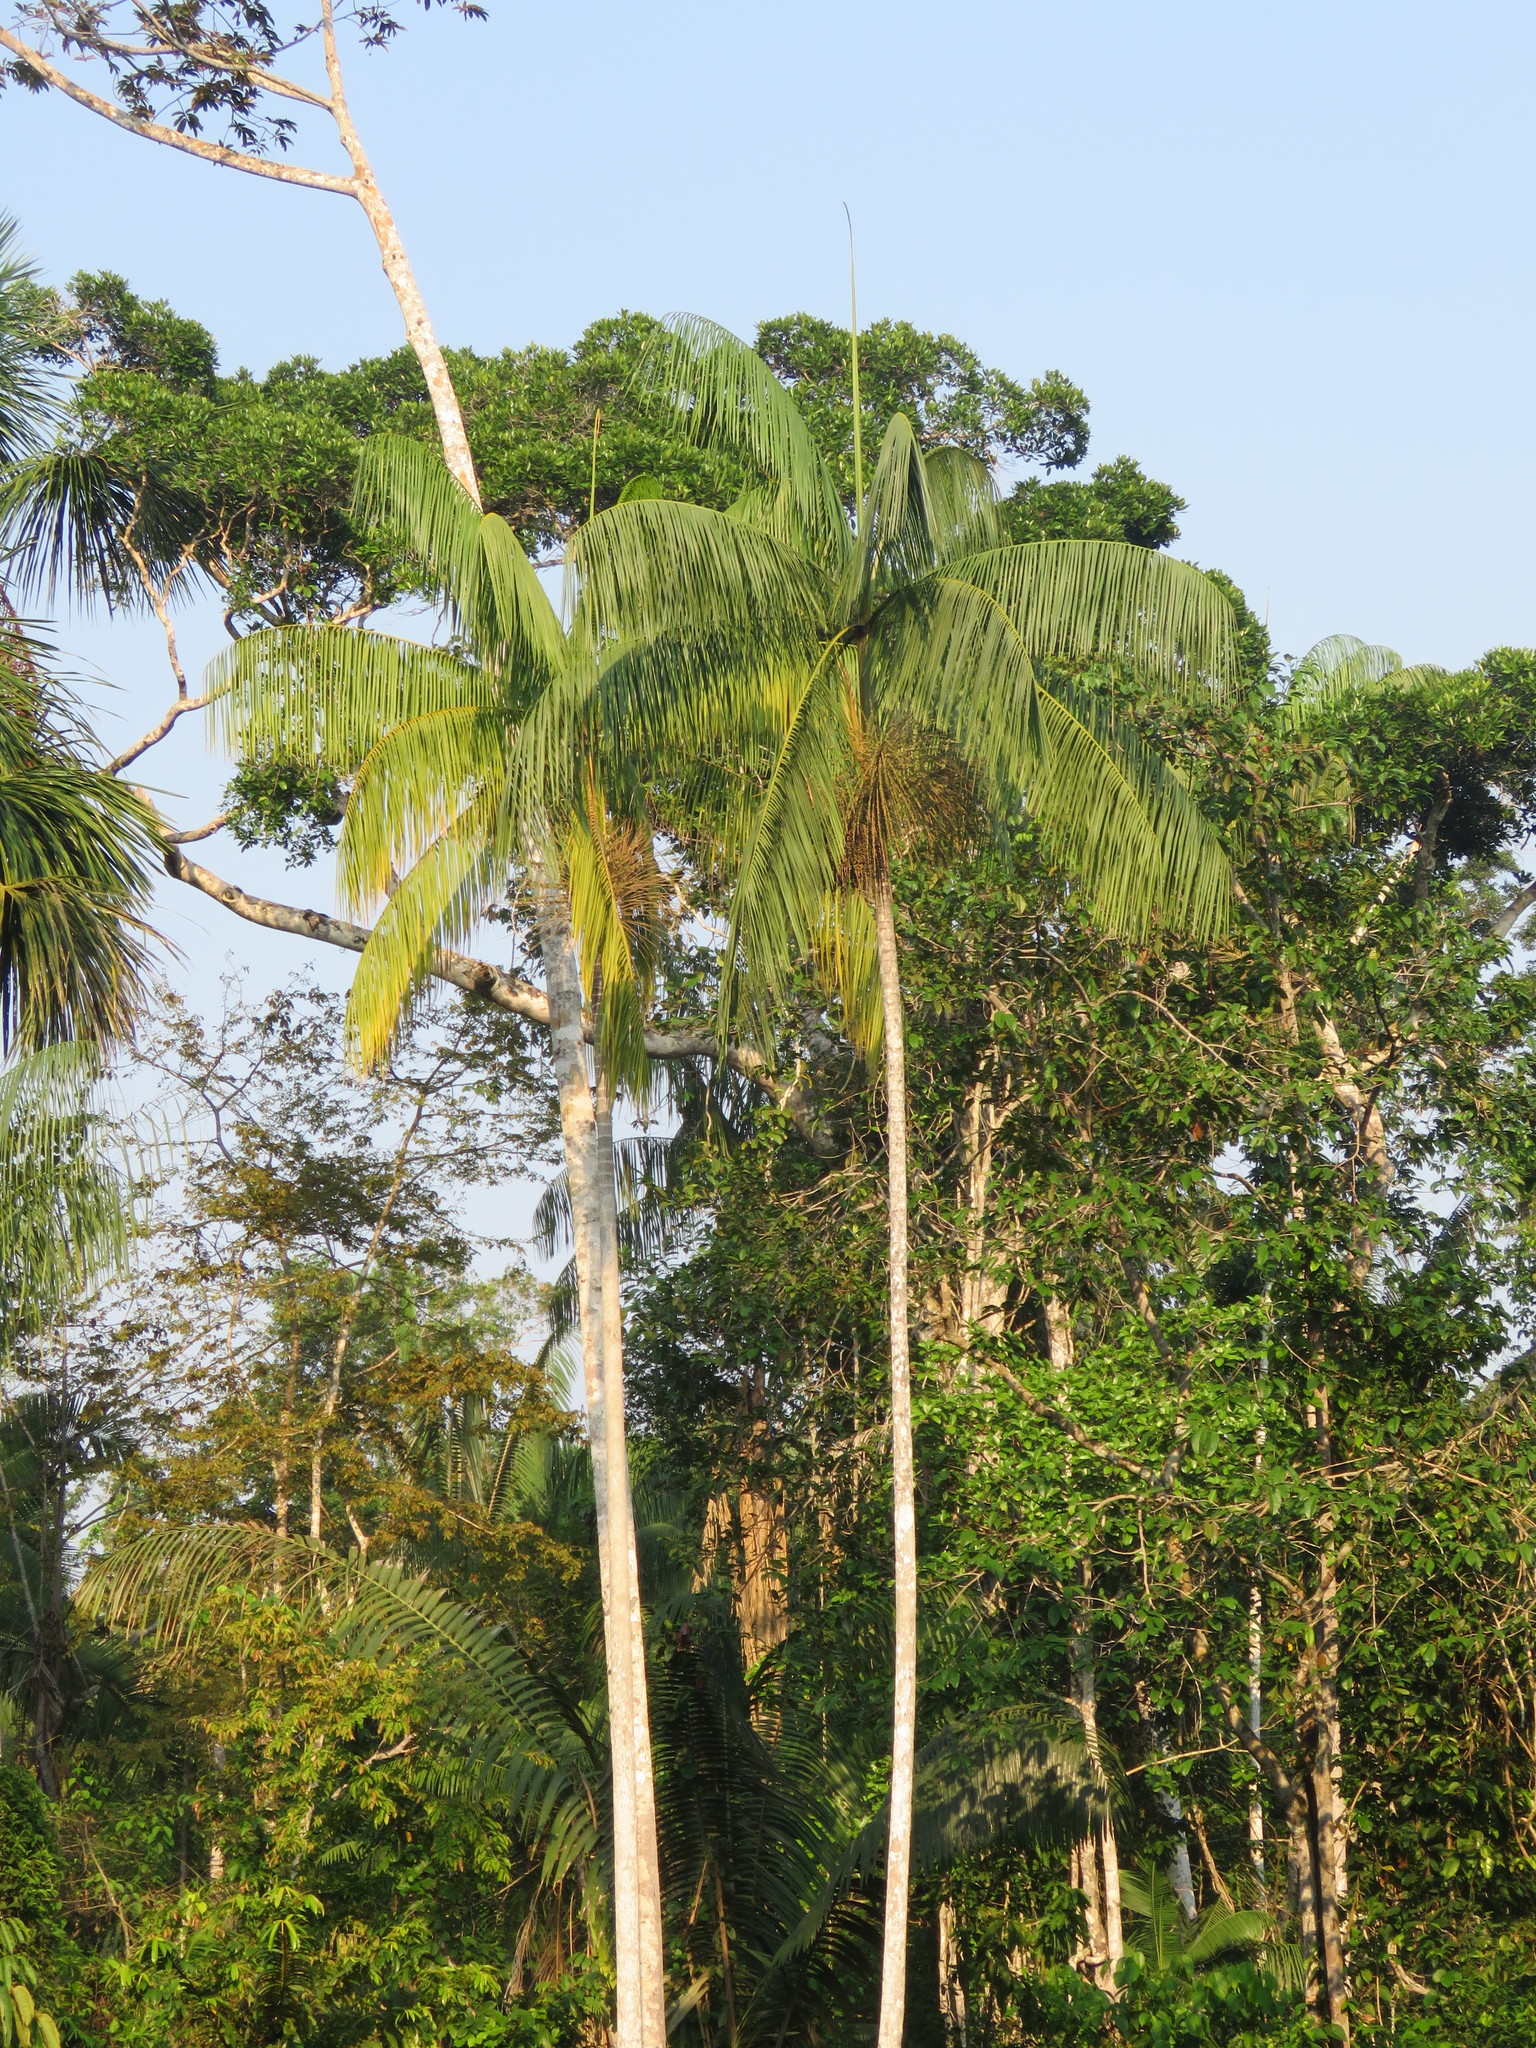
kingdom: Plantae
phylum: Tracheophyta
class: Liliopsida
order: Arecales
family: Arecaceae
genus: Euterpe
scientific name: Euterpe precatoria
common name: Mountain-cabbage
